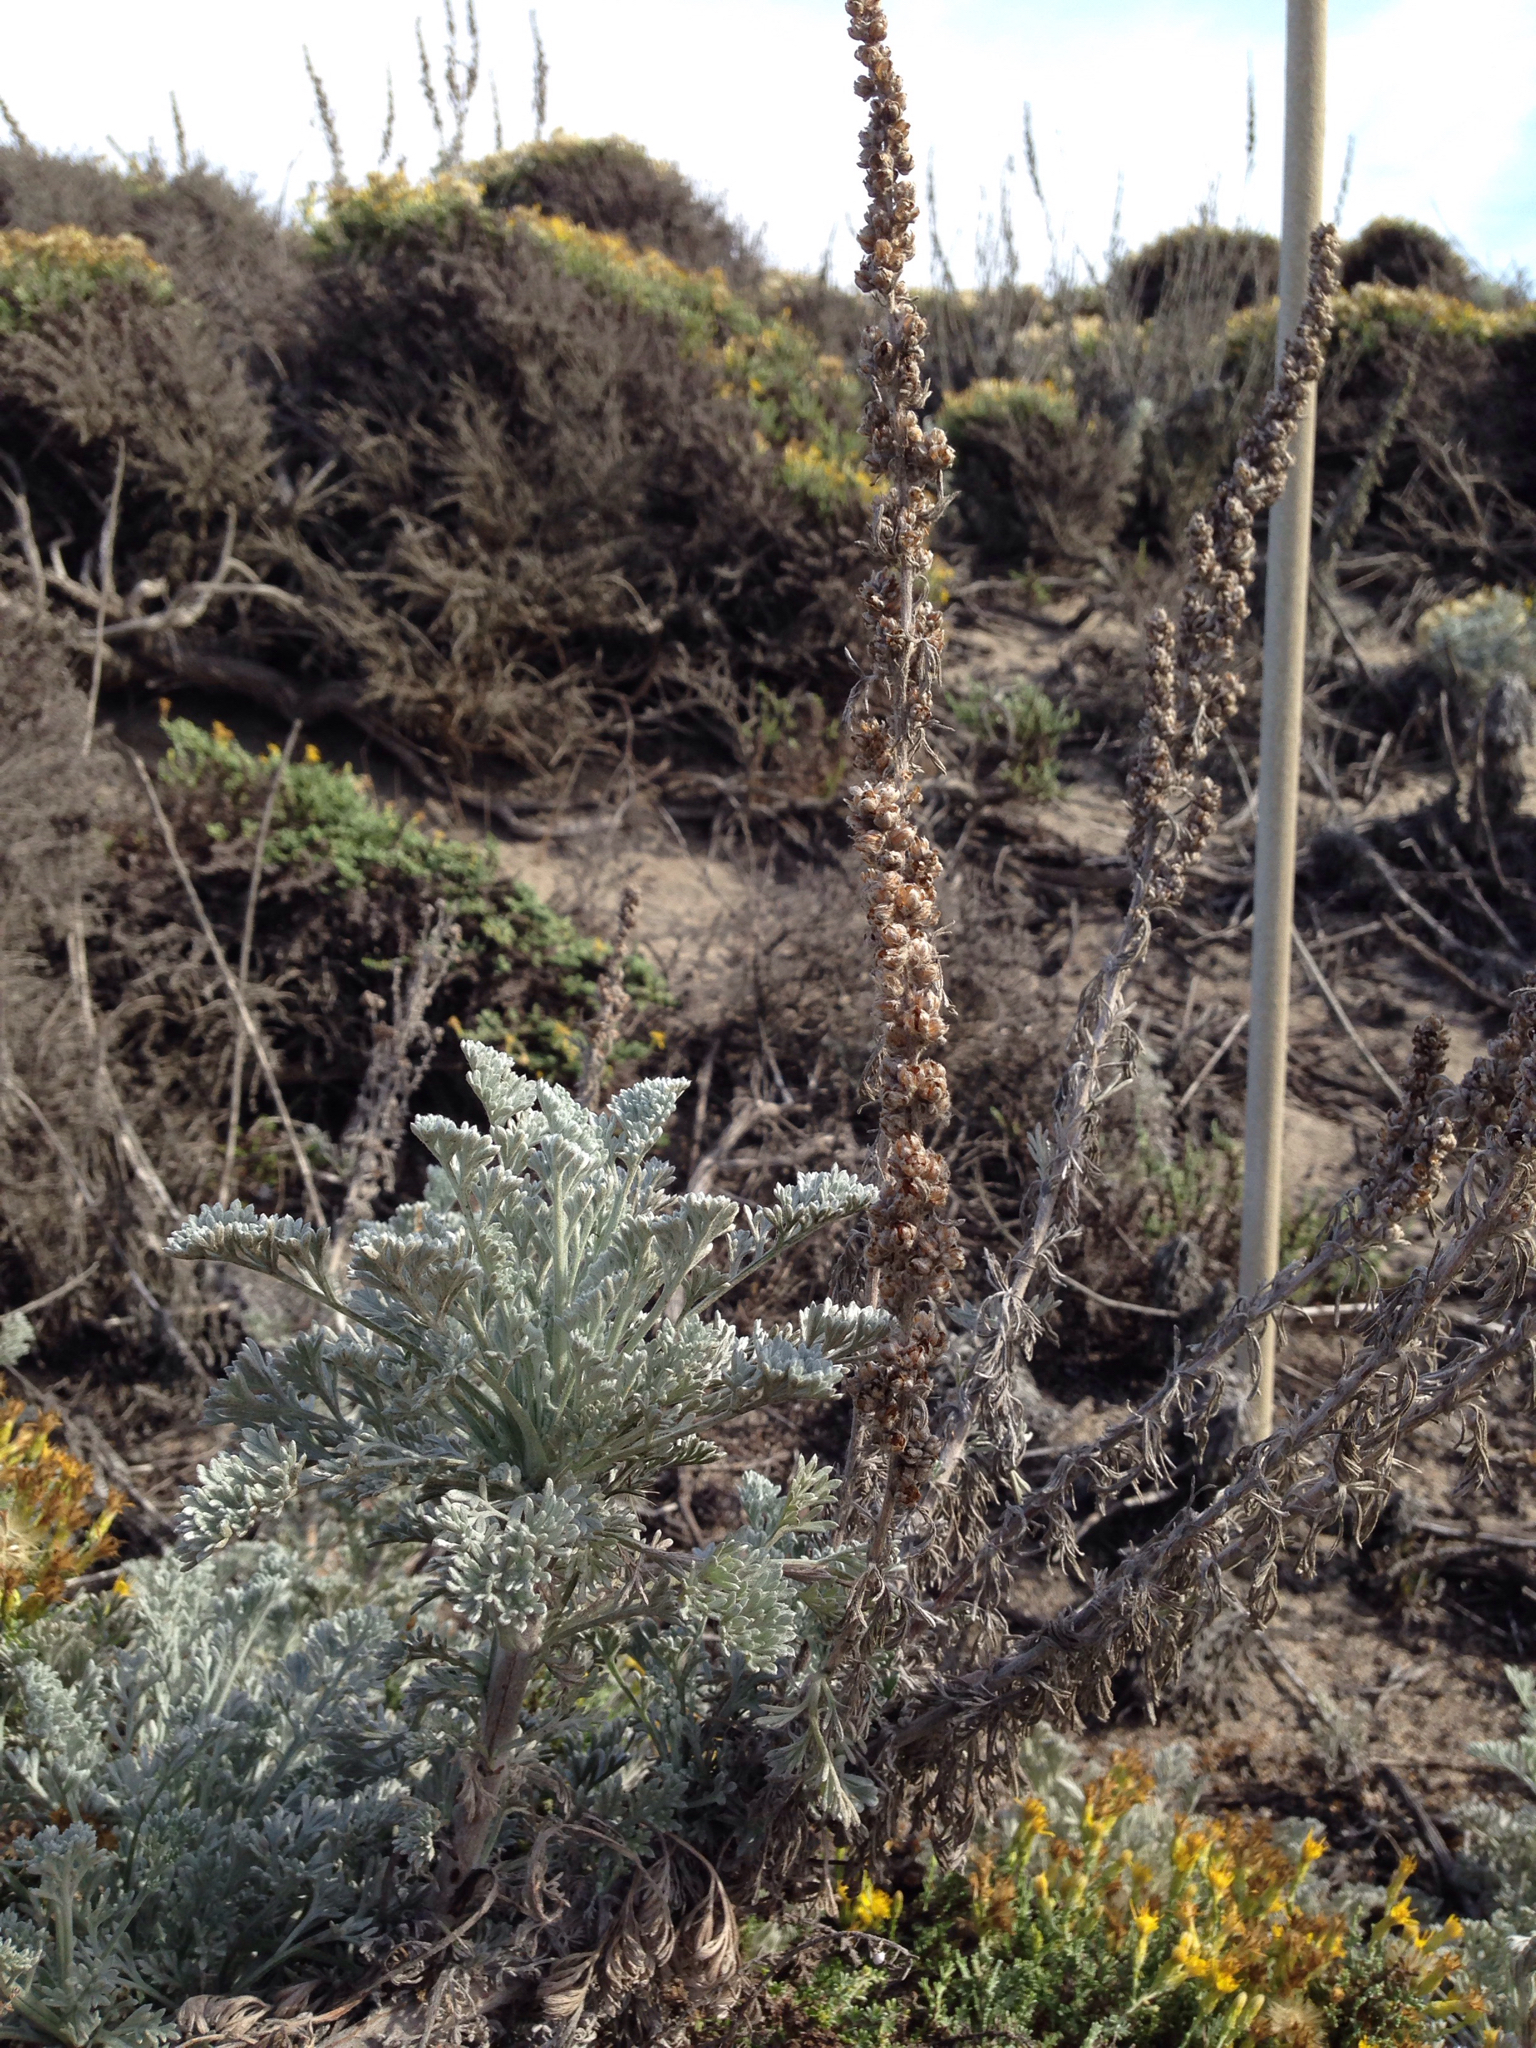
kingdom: Plantae
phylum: Tracheophyta
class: Magnoliopsida
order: Asterales
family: Asteraceae
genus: Artemisia
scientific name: Artemisia pycnocephala
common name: Coastal sagewort
